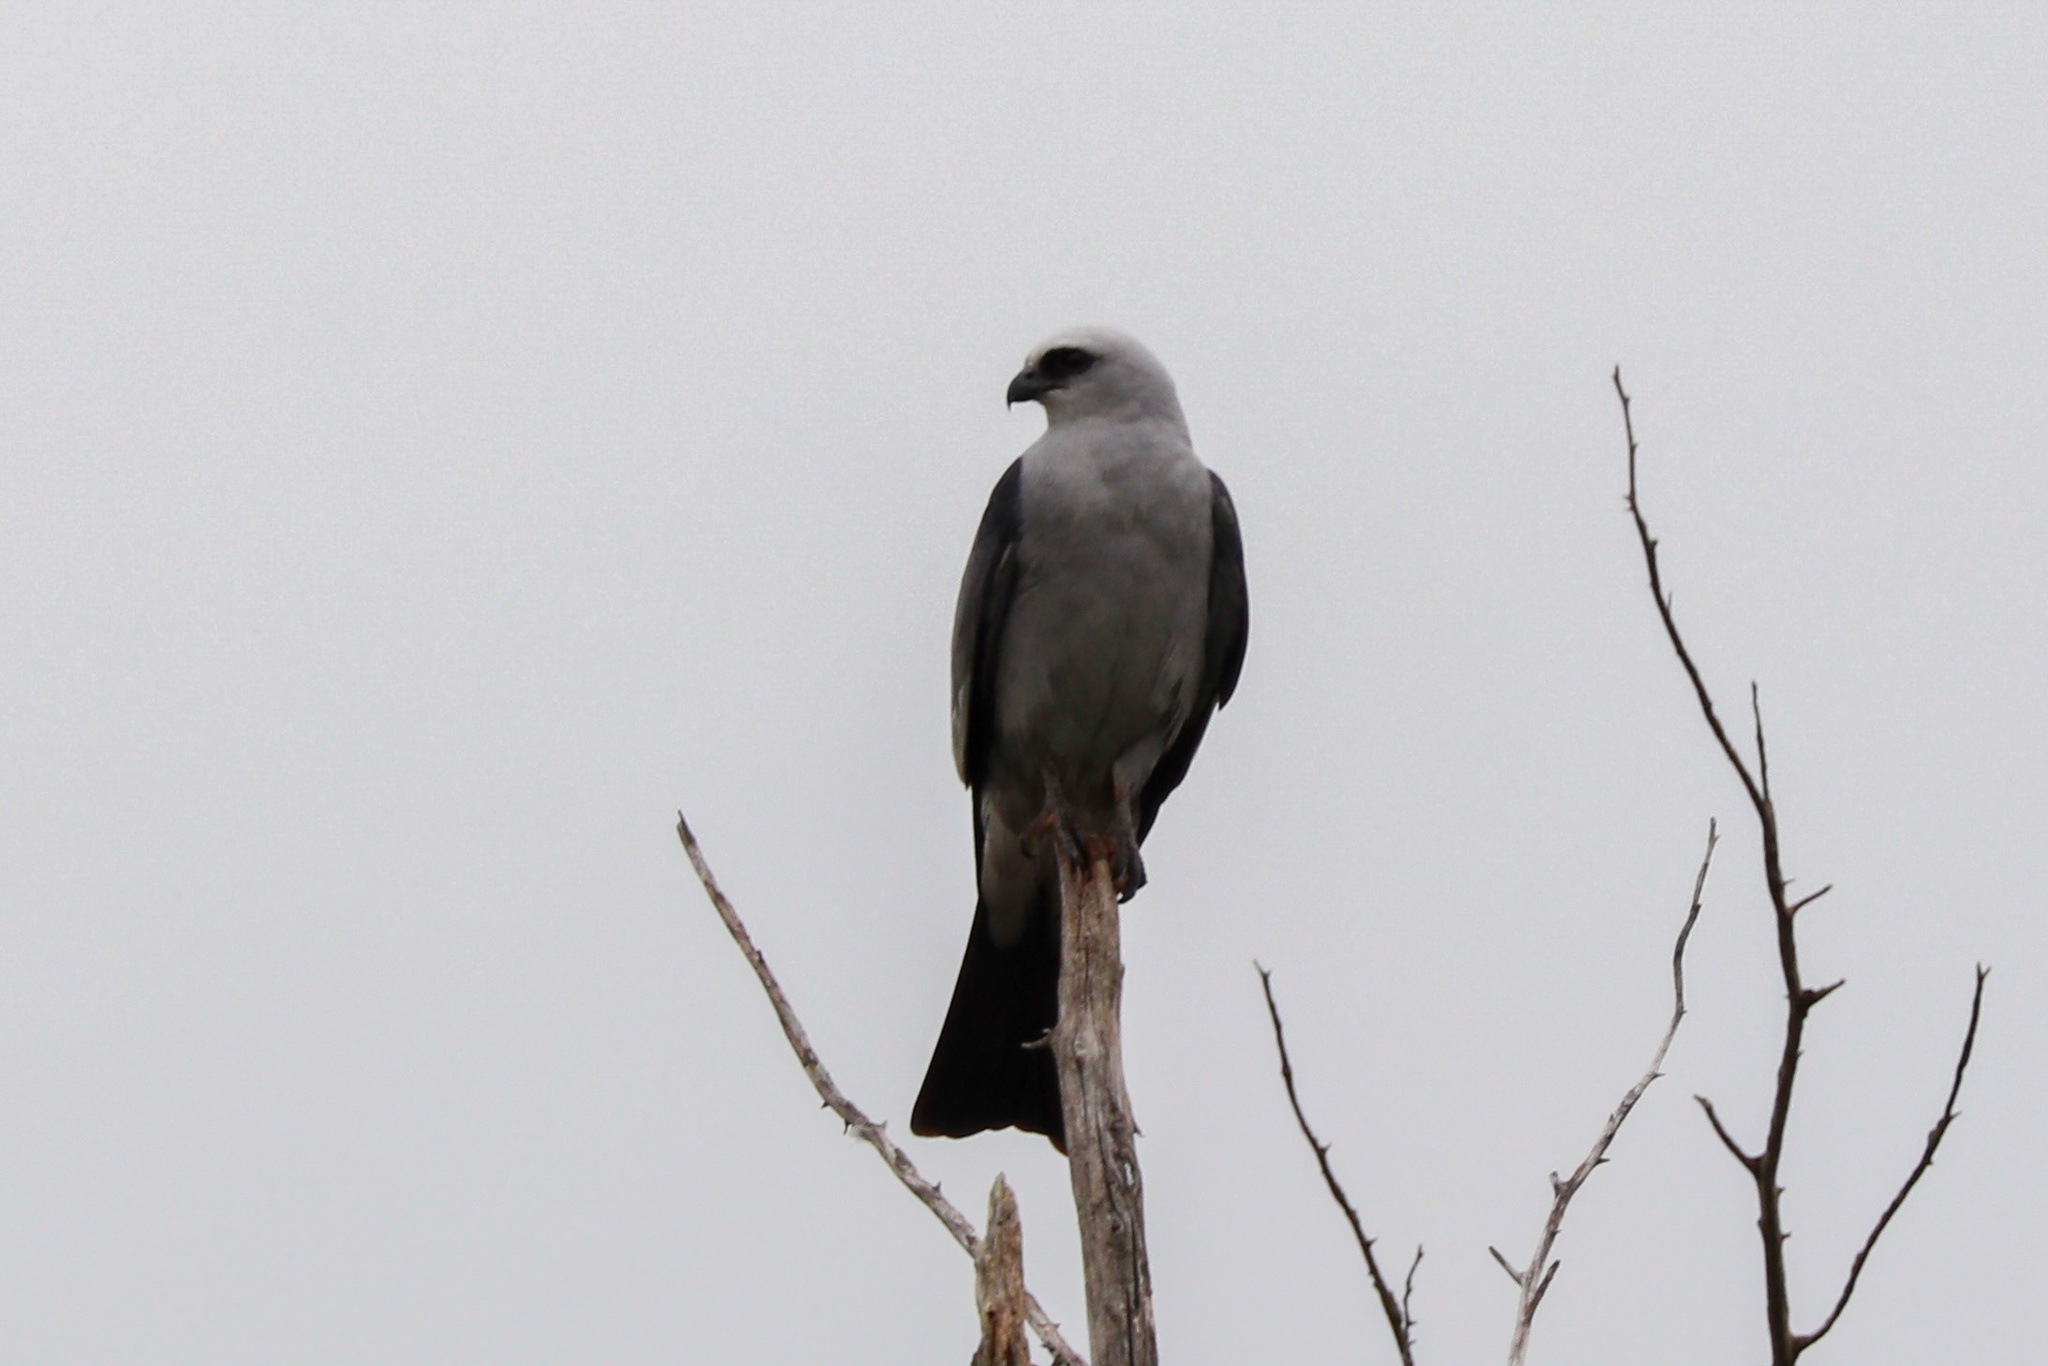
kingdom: Animalia
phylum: Chordata
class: Aves
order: Accipitriformes
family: Accipitridae
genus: Ictinia
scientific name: Ictinia mississippiensis
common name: Mississippi kite
